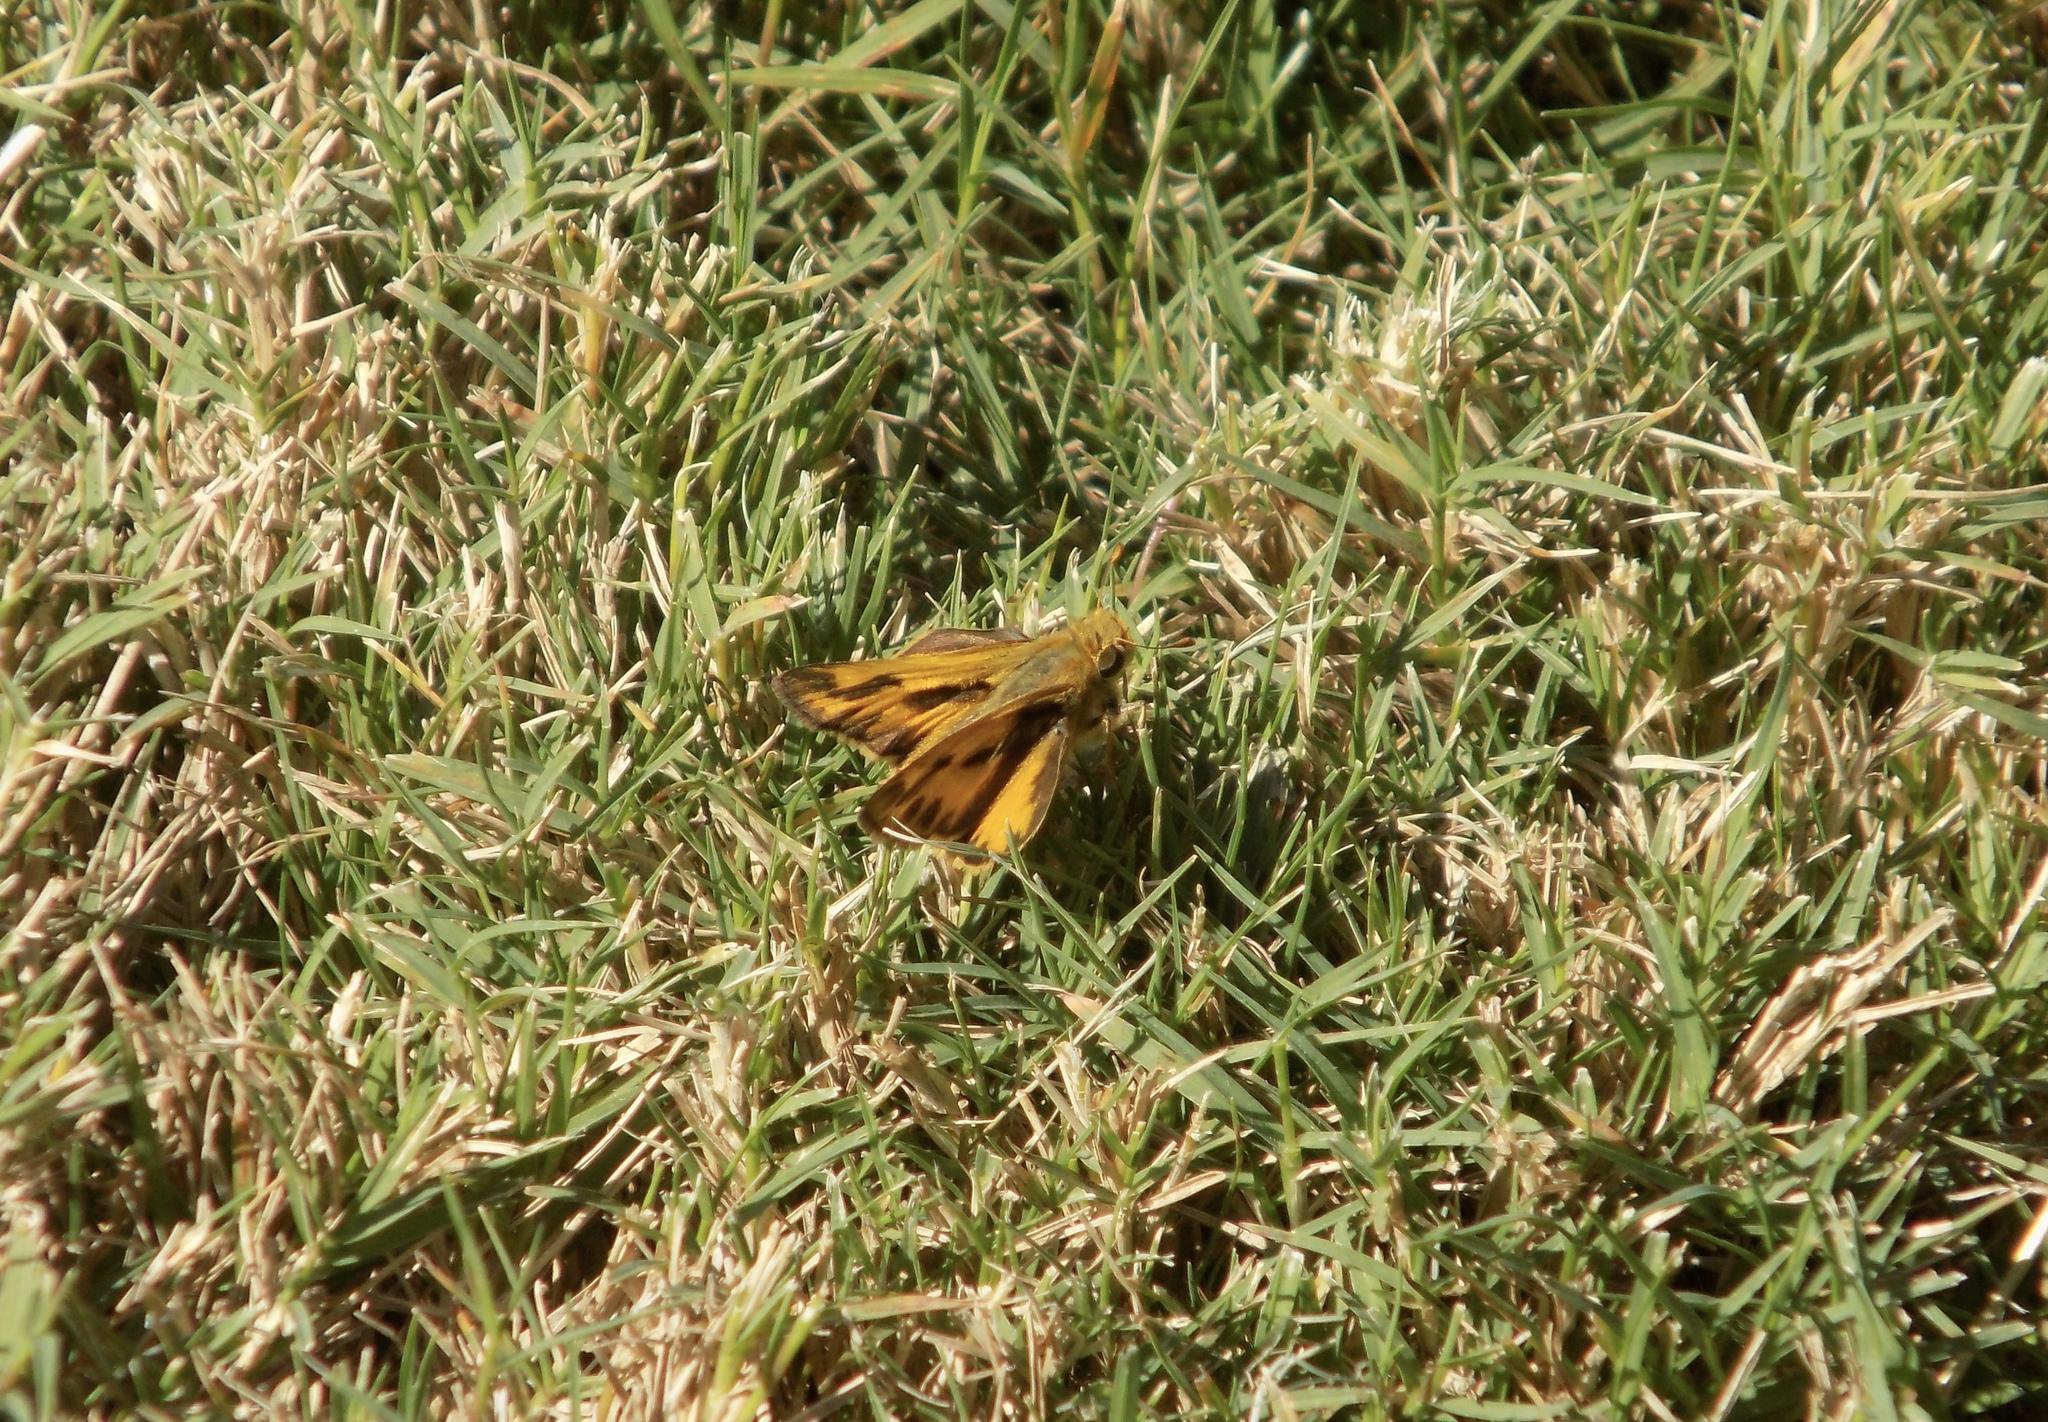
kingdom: Animalia
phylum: Arthropoda
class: Insecta
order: Lepidoptera
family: Hesperiidae
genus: Hylephila
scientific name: Hylephila phyleus
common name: Fiery skipper
